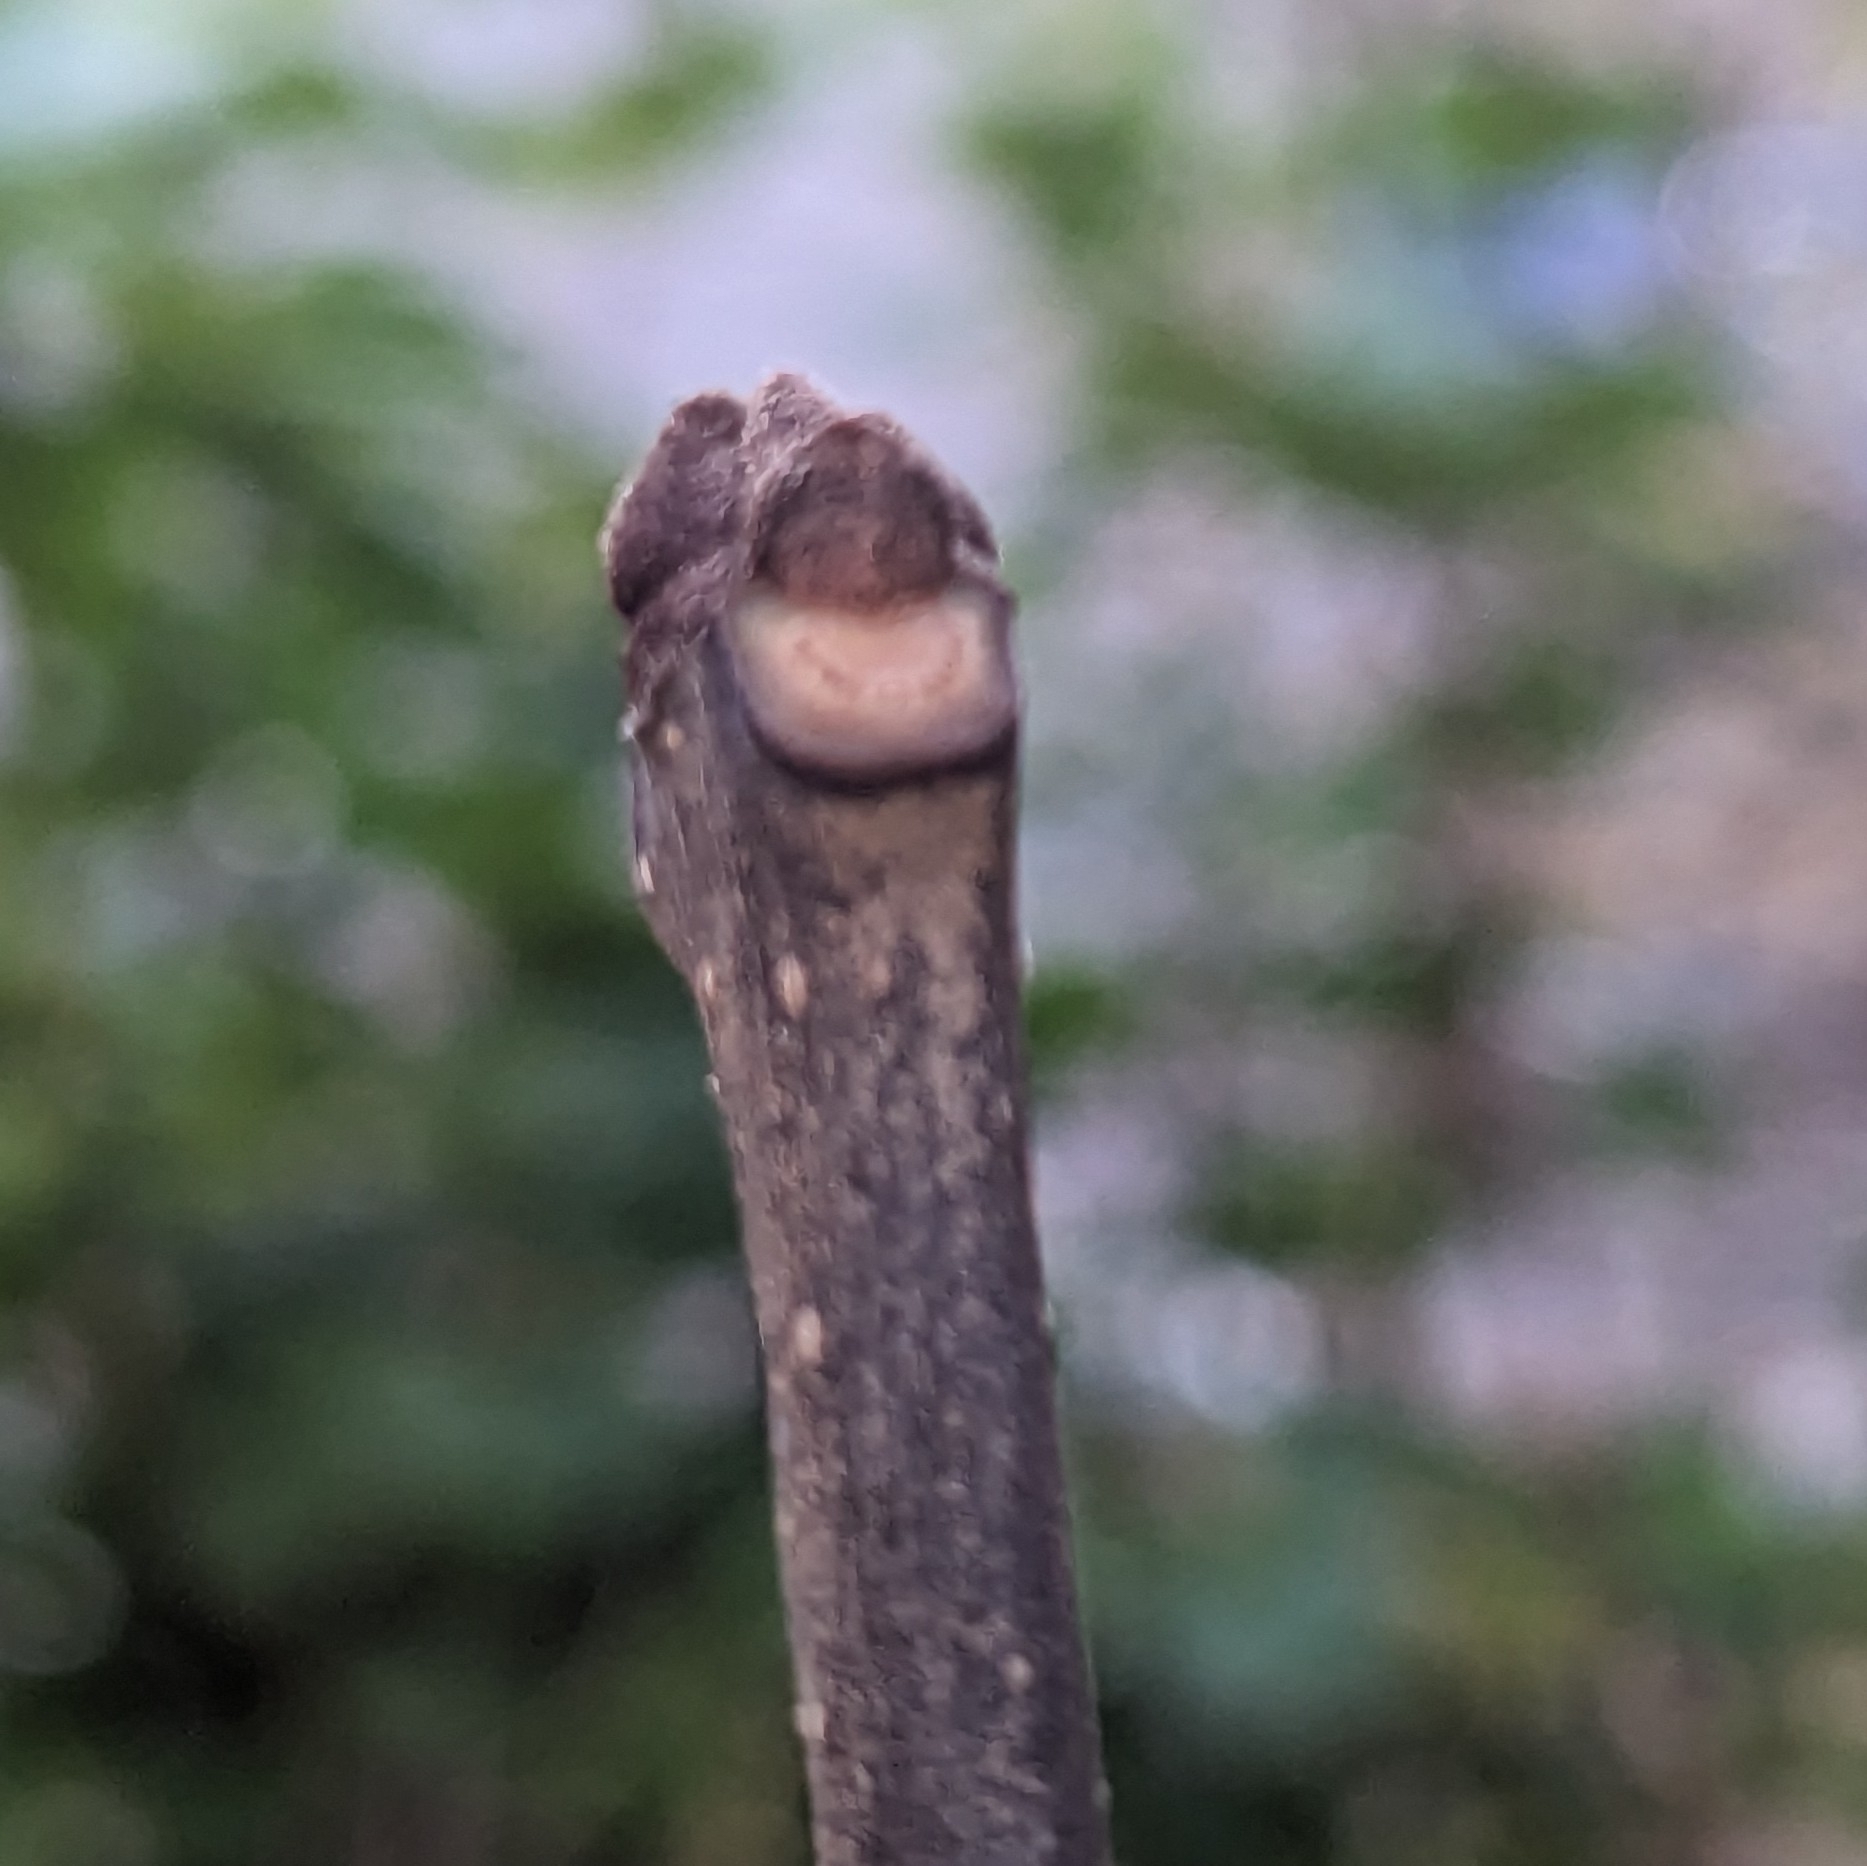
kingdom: Plantae
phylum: Tracheophyta
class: Magnoliopsida
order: Lamiales
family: Oleaceae
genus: Fraxinus
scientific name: Fraxinus americana
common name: White ash
